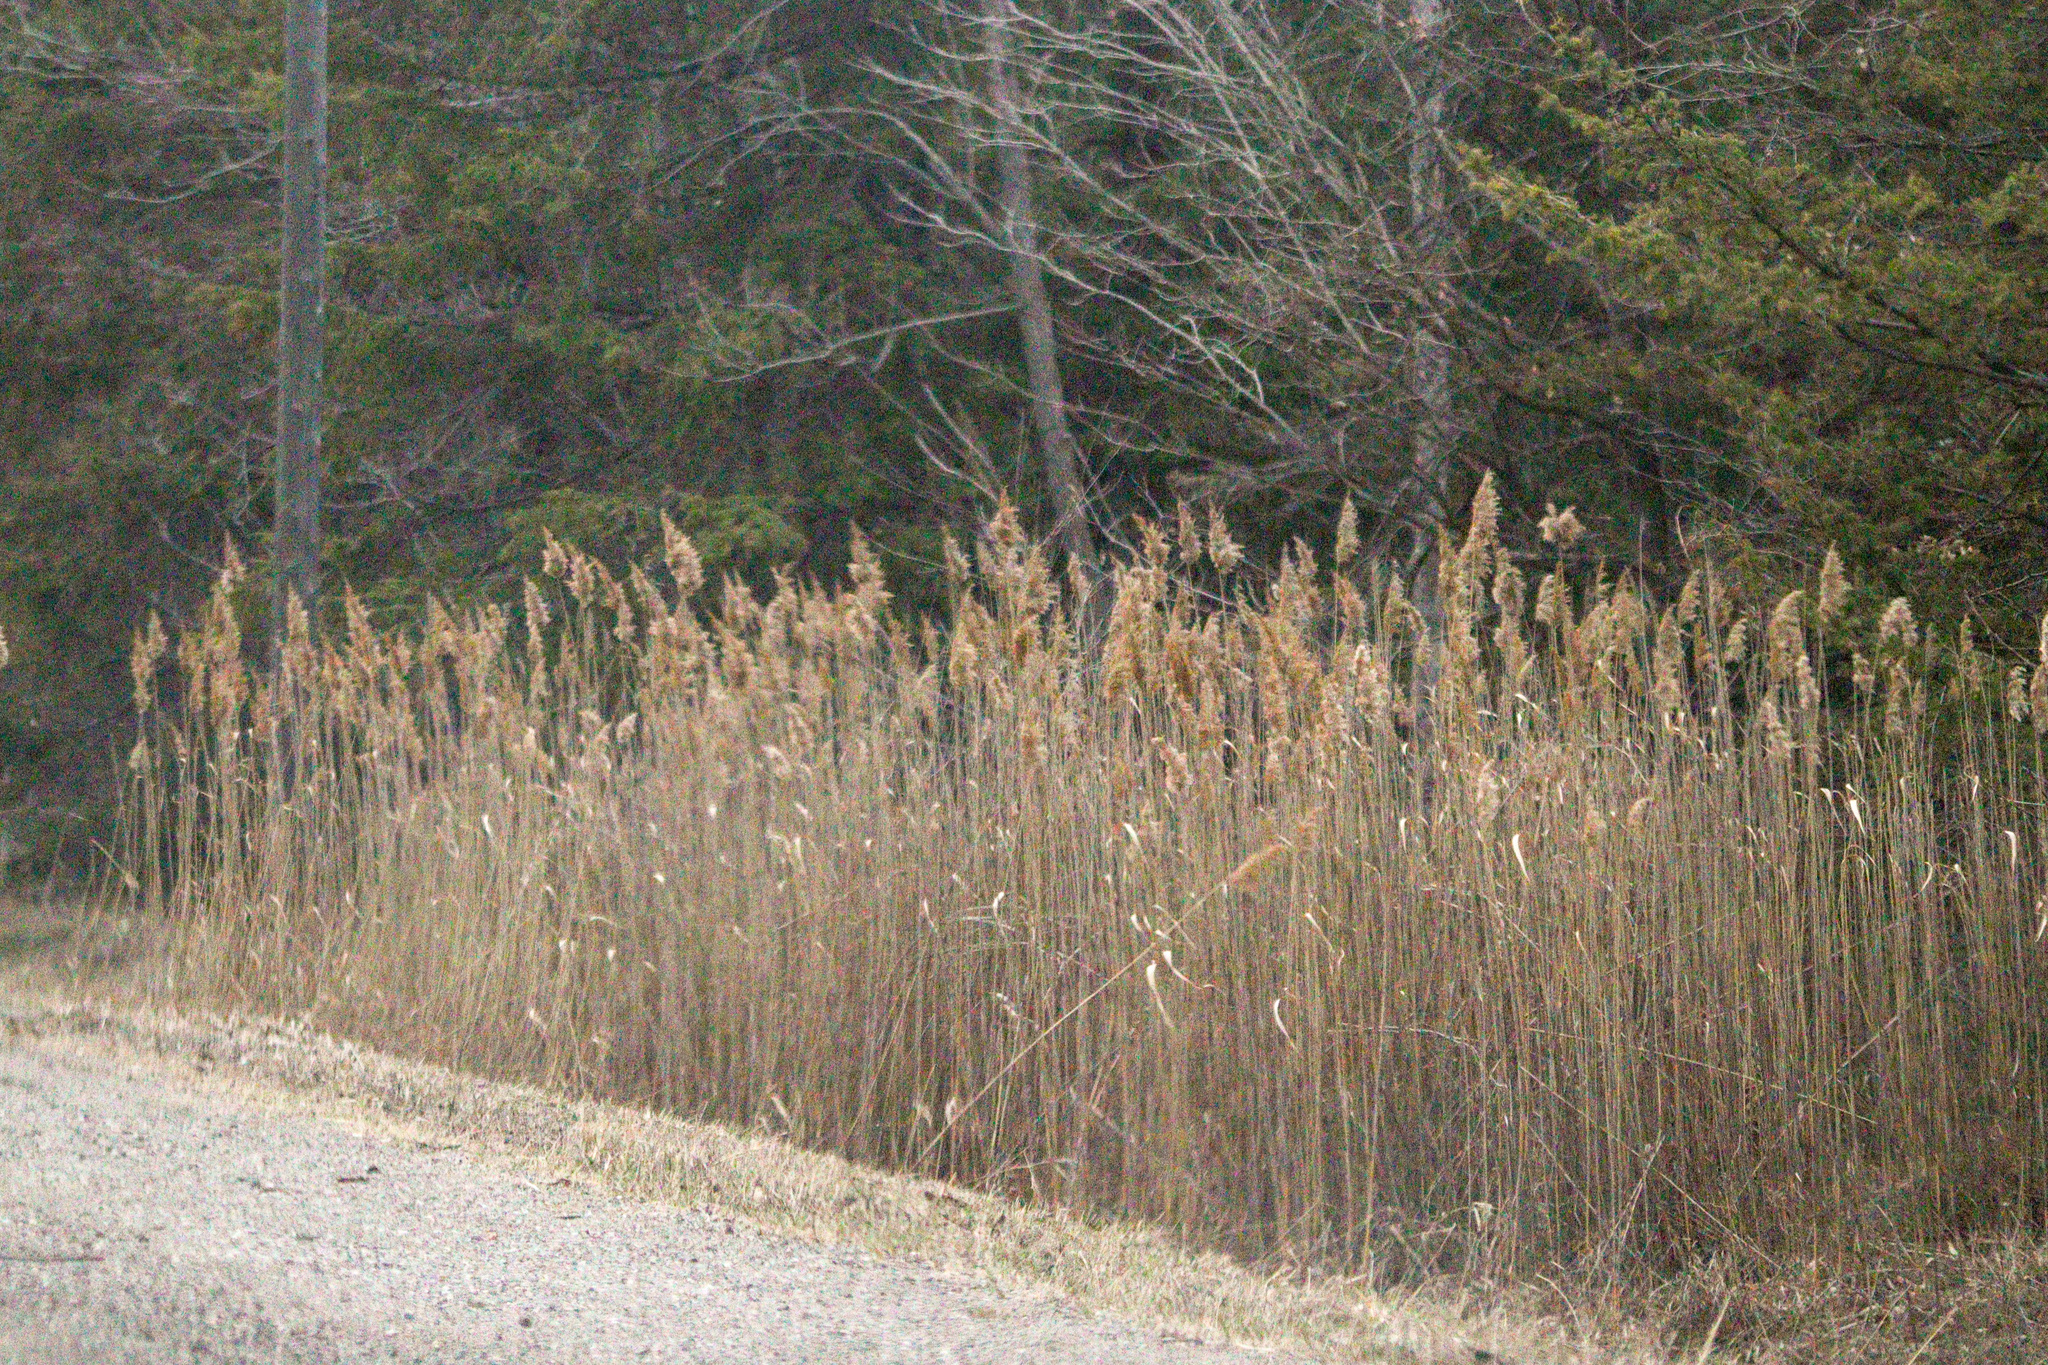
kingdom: Plantae
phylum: Tracheophyta
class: Liliopsida
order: Poales
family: Poaceae
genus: Phragmites
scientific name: Phragmites australis
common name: Common reed
